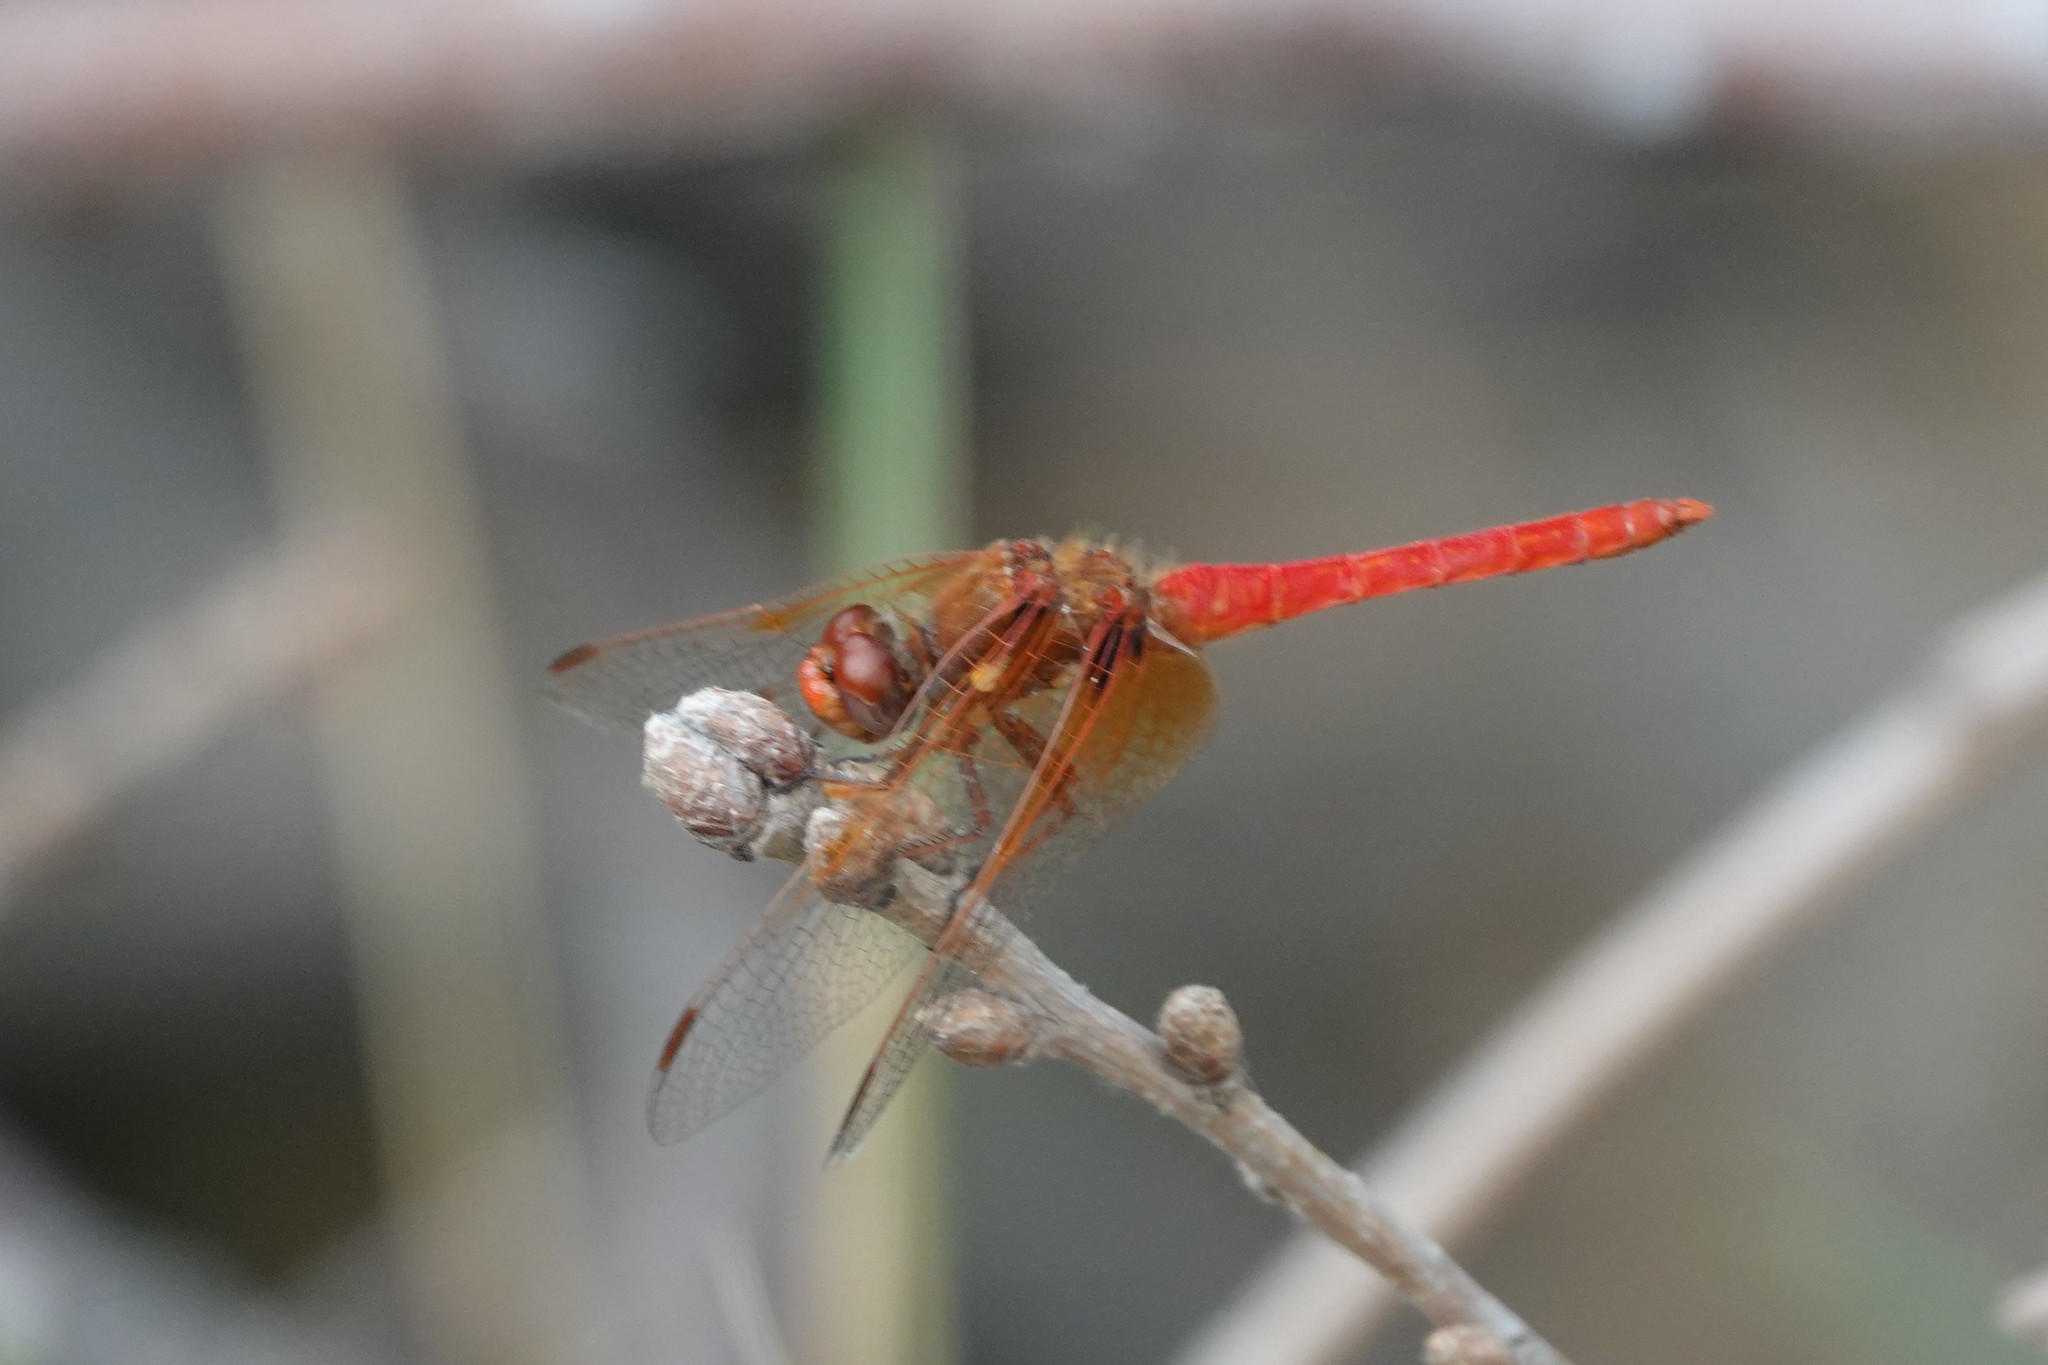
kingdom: Animalia
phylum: Arthropoda
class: Insecta
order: Odonata
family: Libellulidae
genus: Sympetrum
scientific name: Sympetrum illotum
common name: Cardinal meadowhawk
